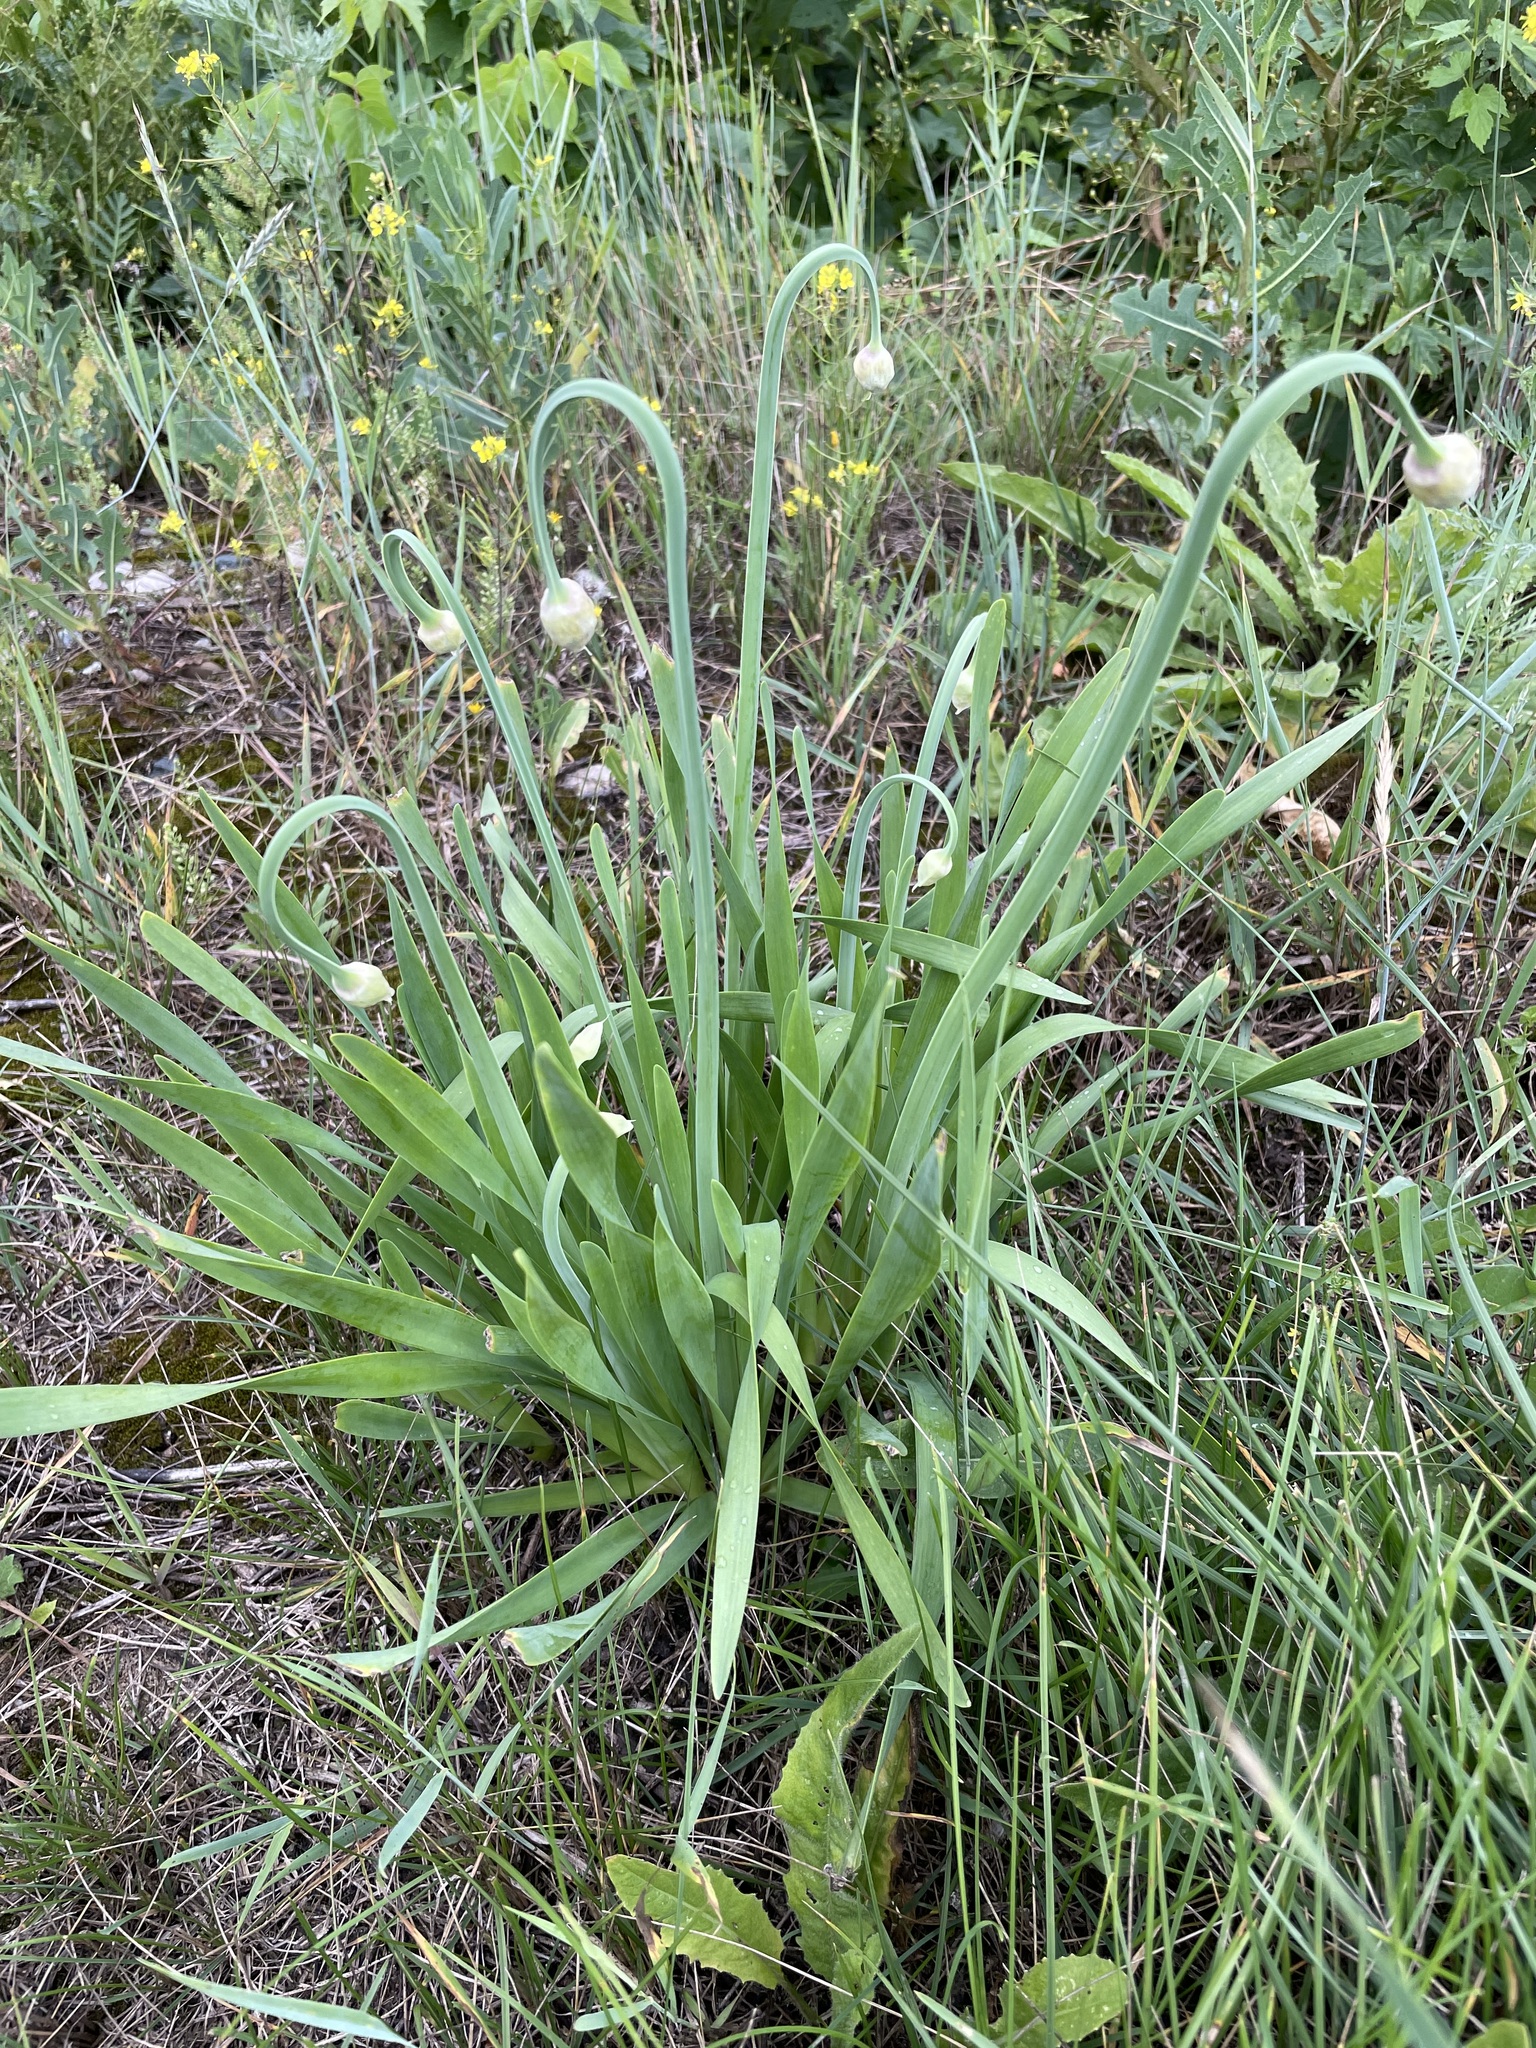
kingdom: Plantae
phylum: Tracheophyta
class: Liliopsida
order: Asparagales
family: Amaryllidaceae
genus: Allium
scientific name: Allium nutans
